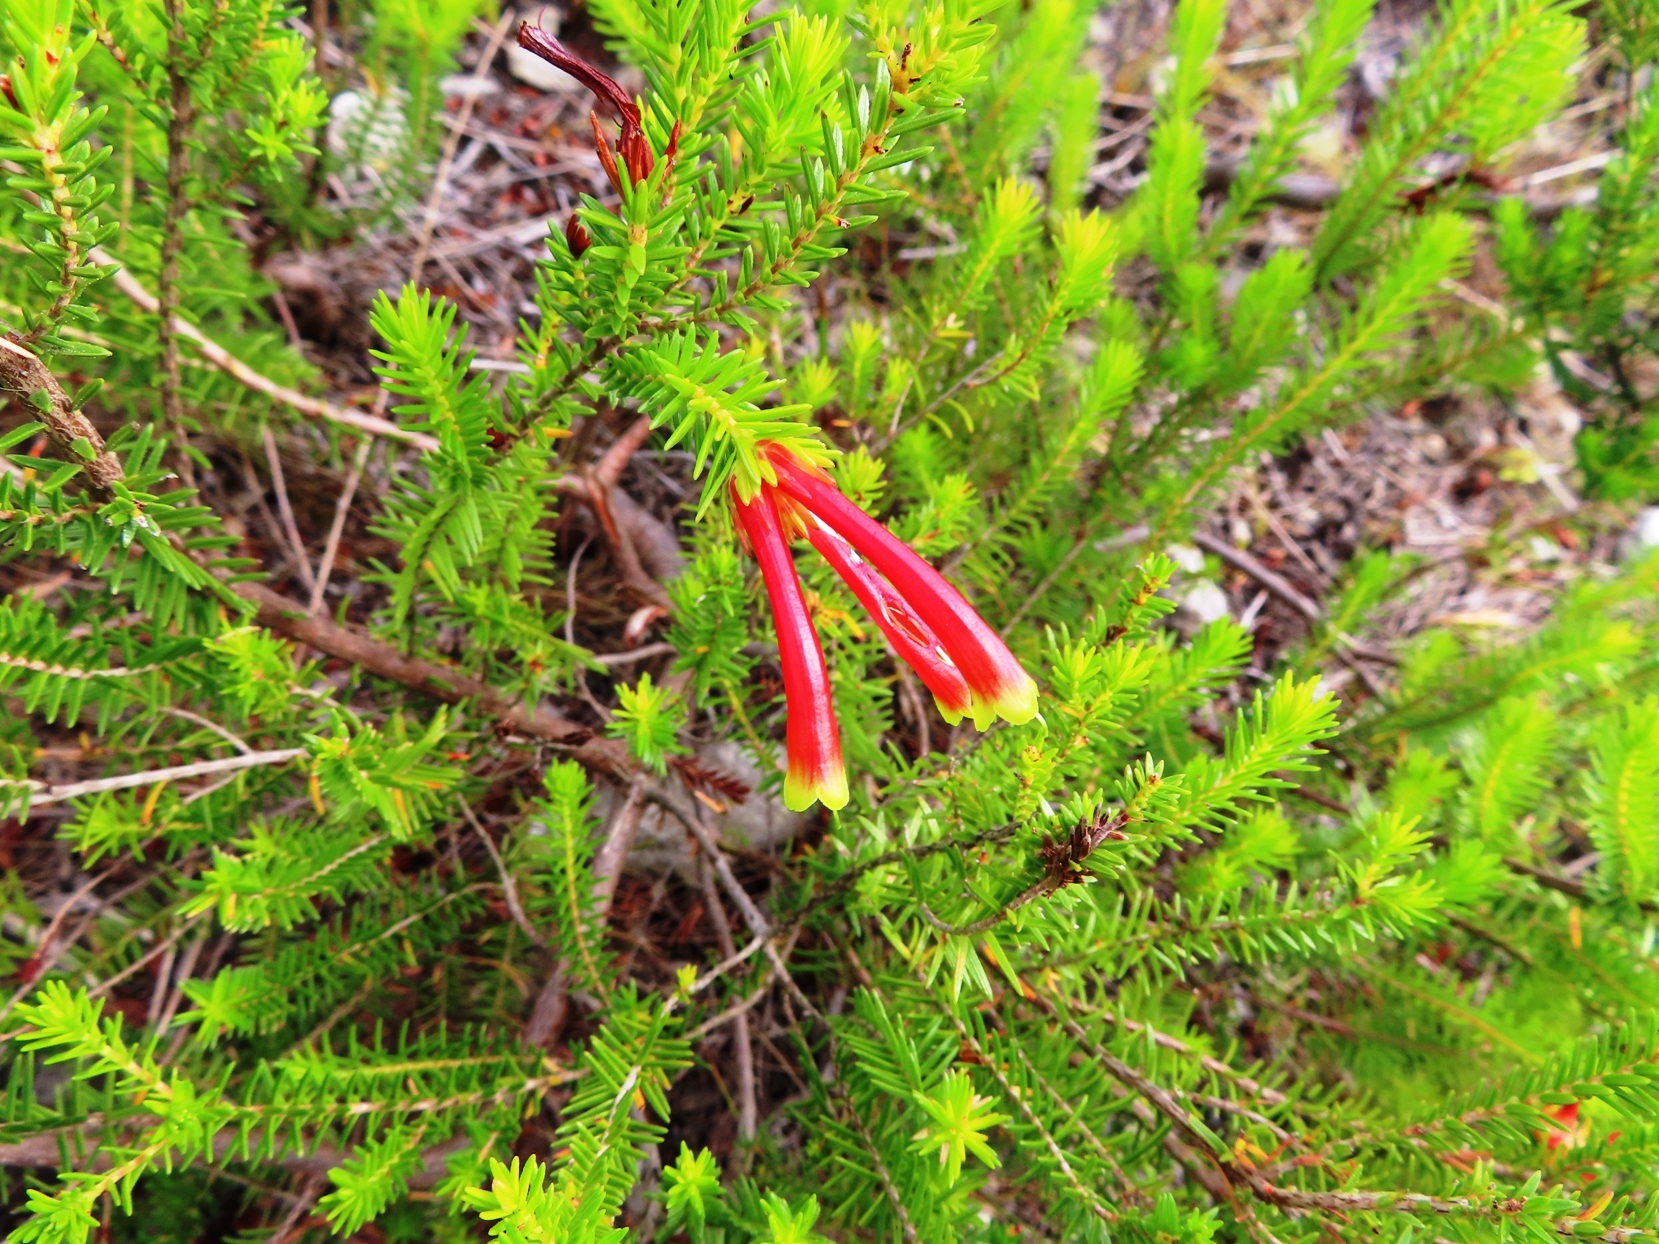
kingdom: Plantae
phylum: Tracheophyta
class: Magnoliopsida
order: Ericales
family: Ericaceae
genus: Erica
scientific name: Erica versicolor
